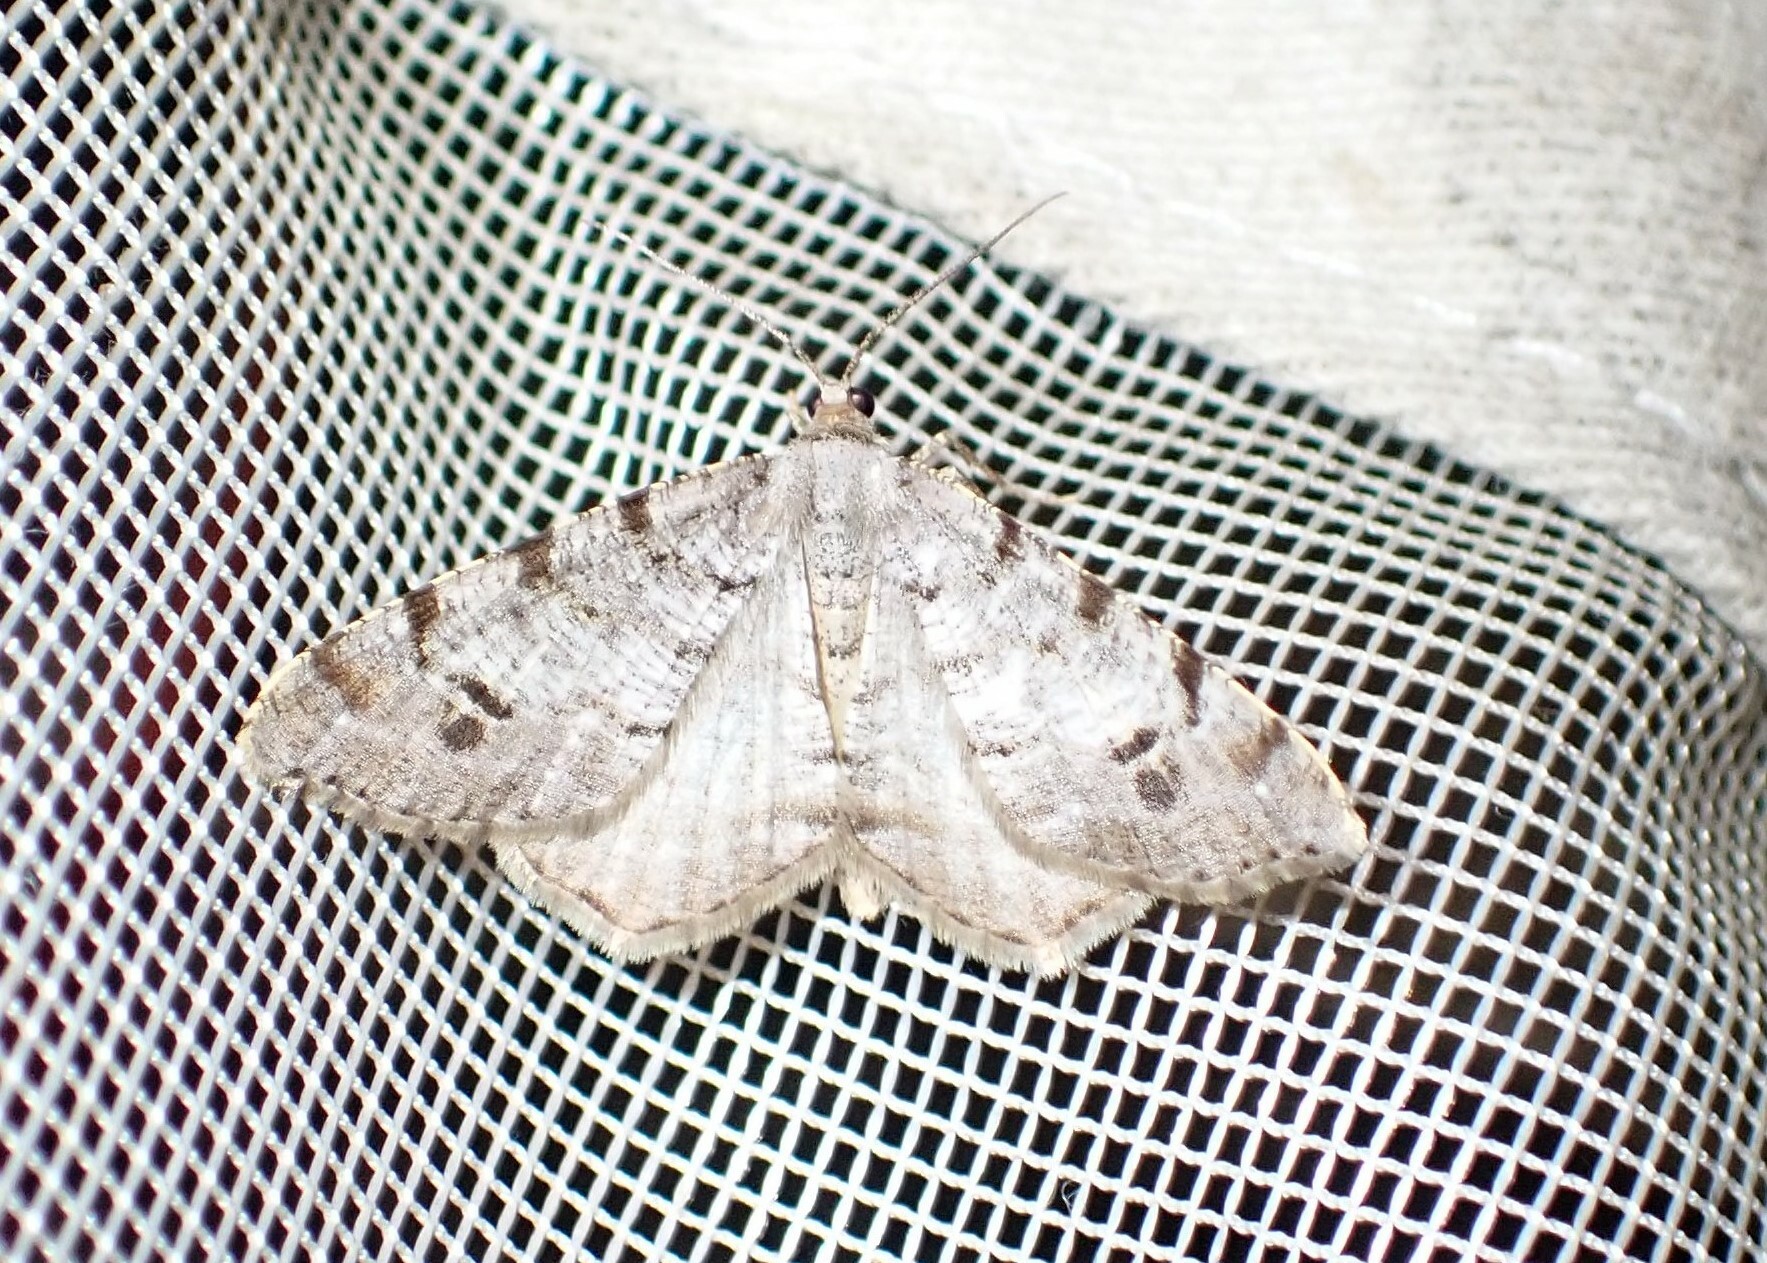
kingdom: Animalia
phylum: Arthropoda
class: Insecta
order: Lepidoptera
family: Geometridae
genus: Macaria
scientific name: Macaria signaria
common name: Dusky peacock
